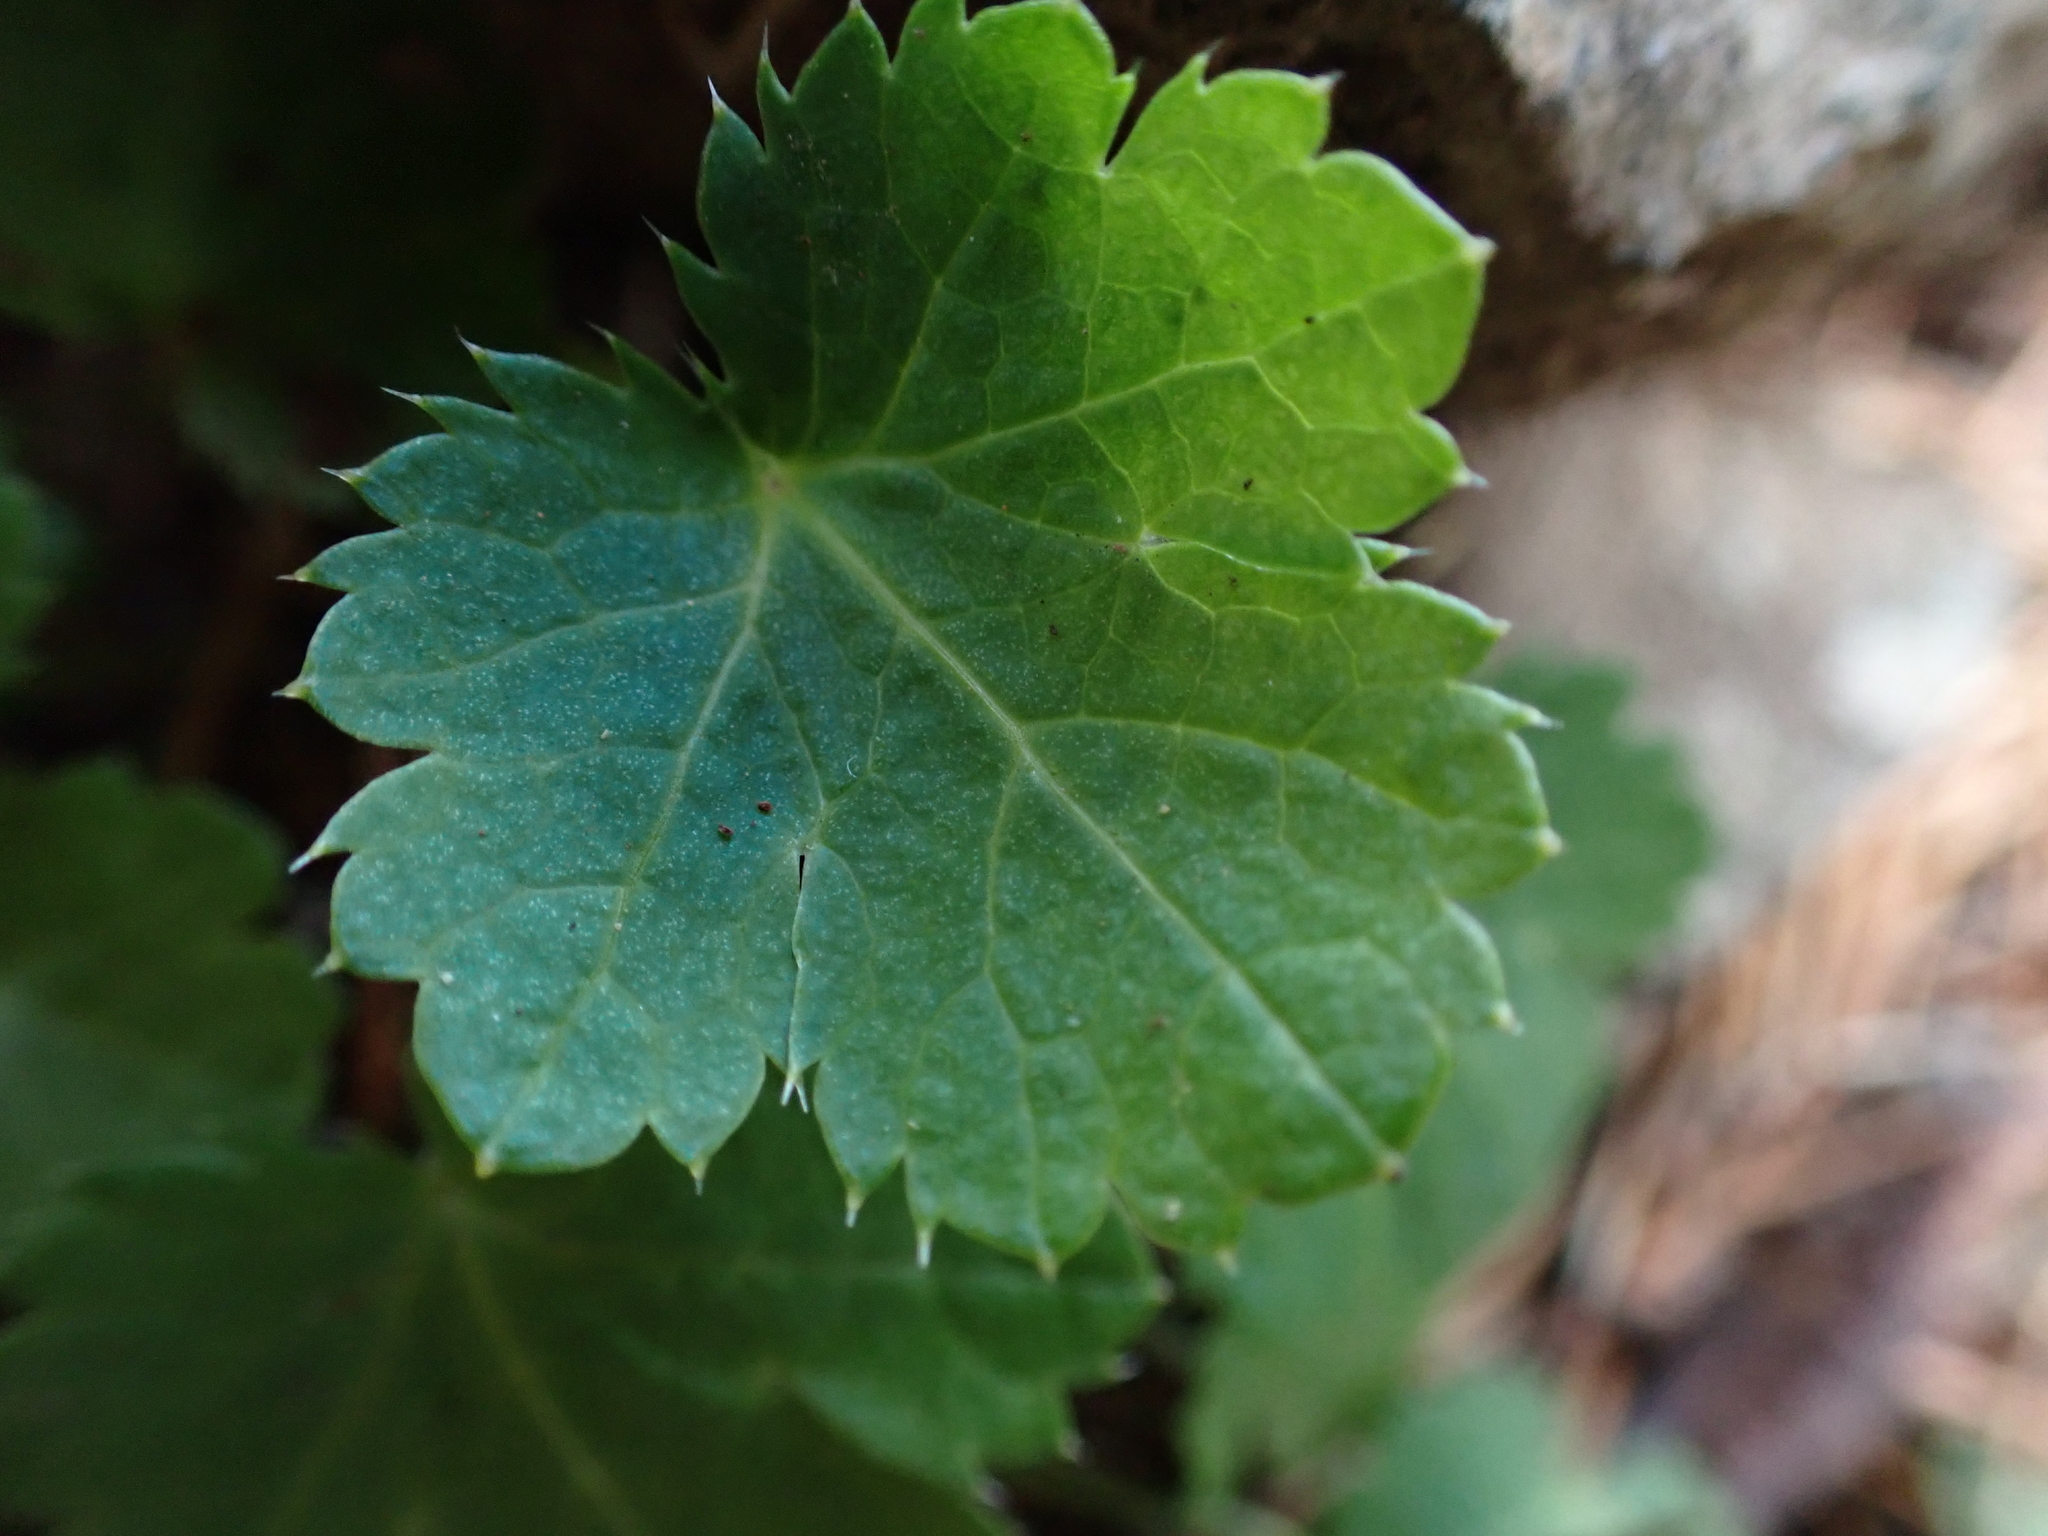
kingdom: Plantae
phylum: Tracheophyta
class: Magnoliopsida
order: Apiales
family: Apiaceae
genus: Sanicula
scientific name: Sanicula crassicaulis
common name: Western snakeroot
